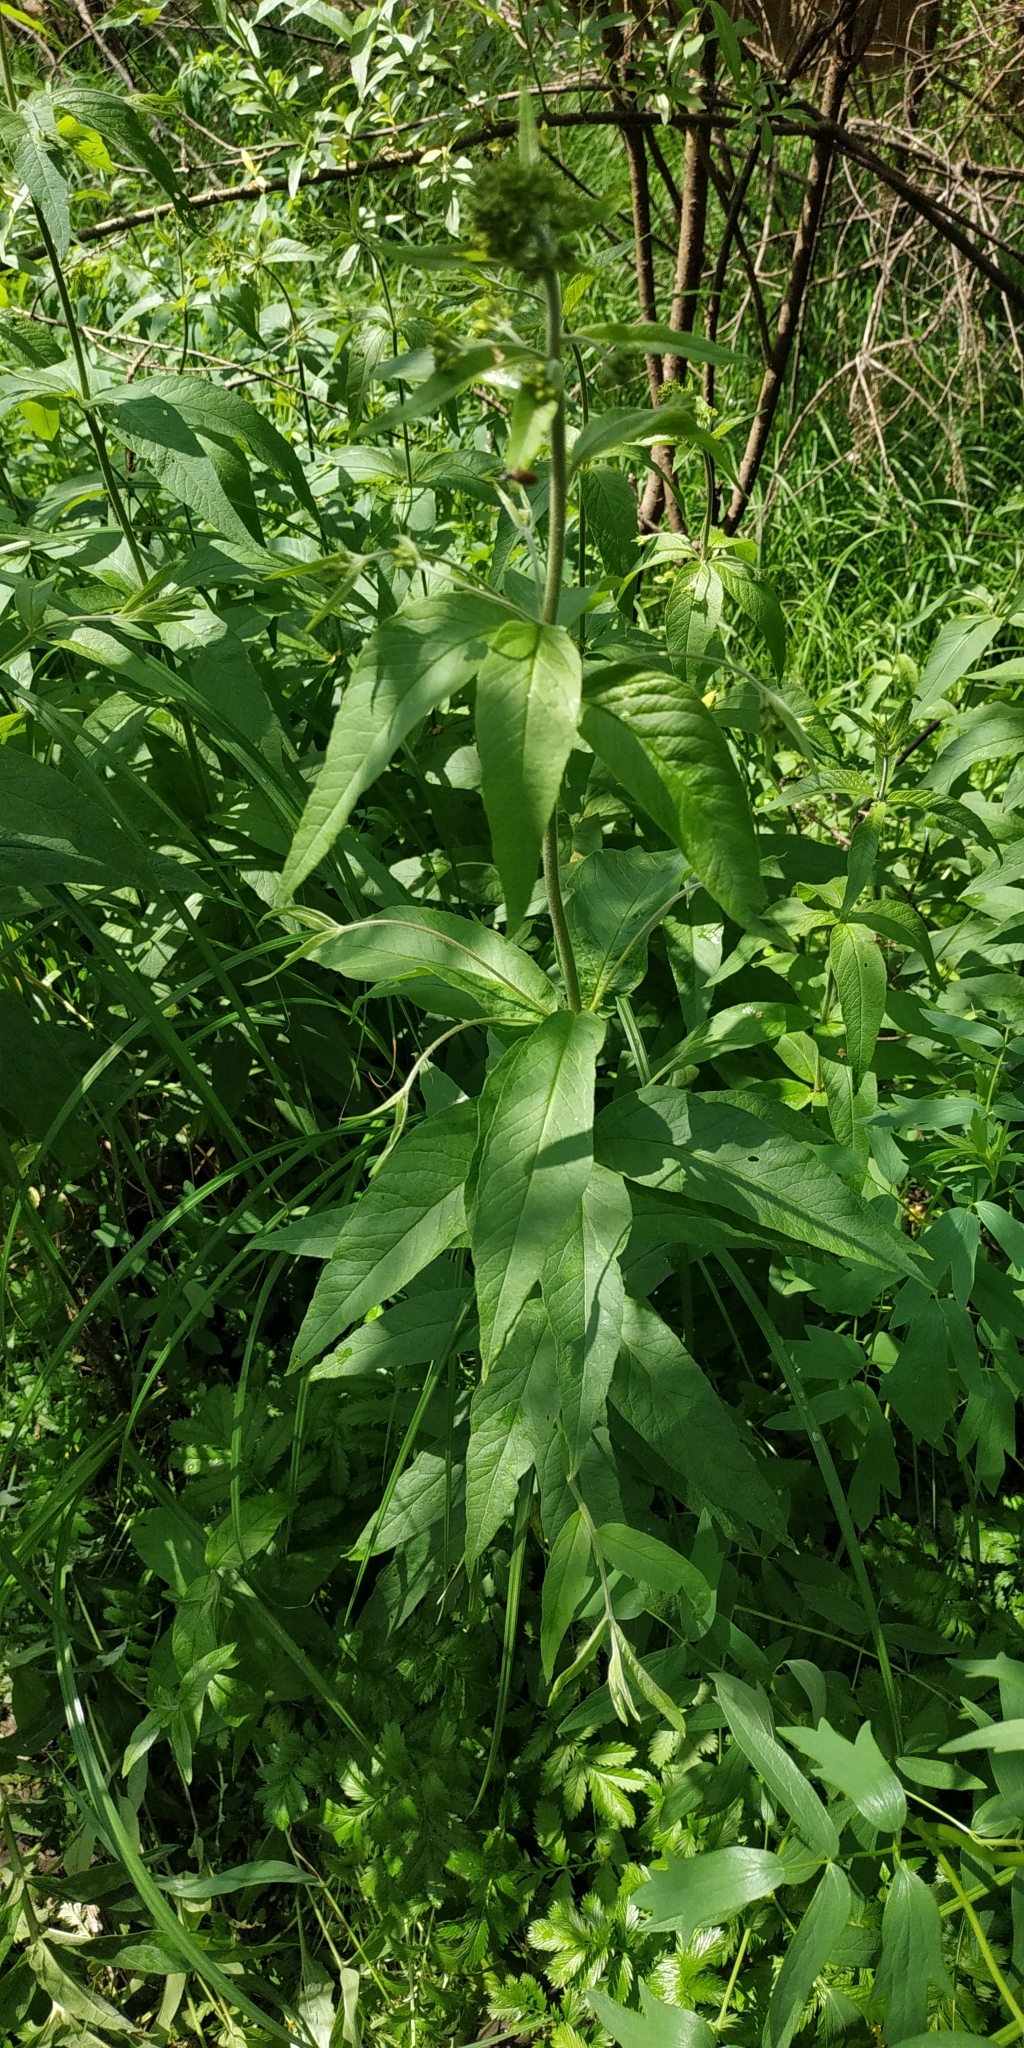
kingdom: Plantae
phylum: Tracheophyta
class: Magnoliopsida
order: Ericales
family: Primulaceae
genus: Lysimachia
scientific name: Lysimachia vulgaris
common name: Yellow loosestrife
